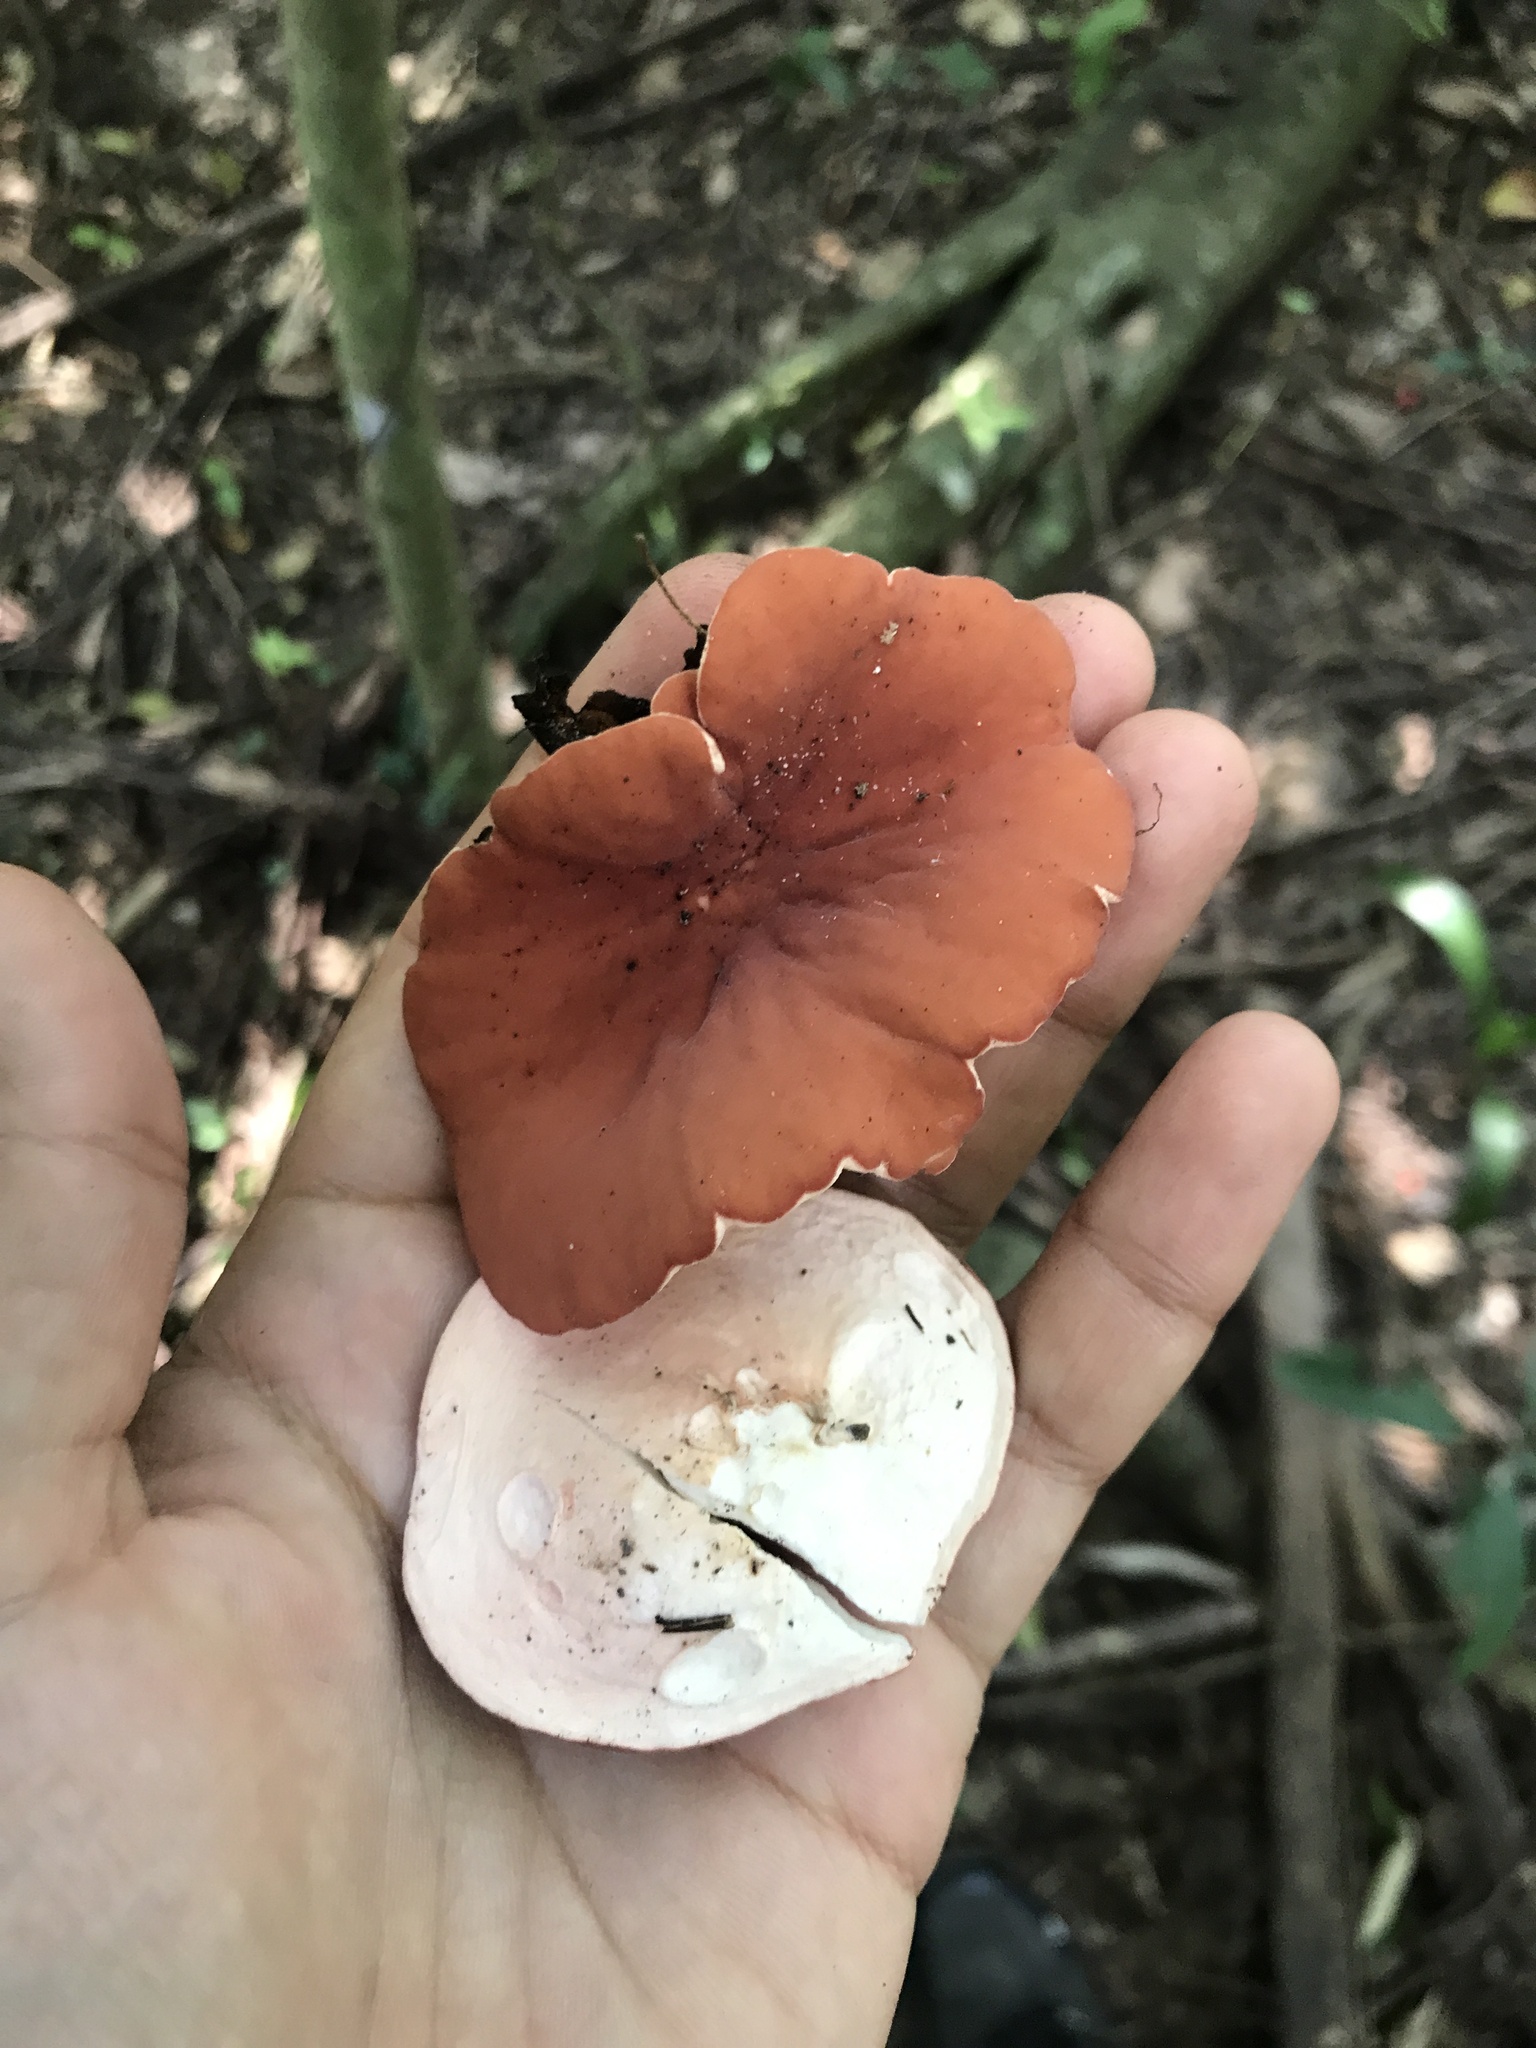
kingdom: Fungi
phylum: Ascomycota
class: Pezizomycetes
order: Pezizales
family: Sarcoscyphaceae
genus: Phillipsia
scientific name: Phillipsia domingensis
